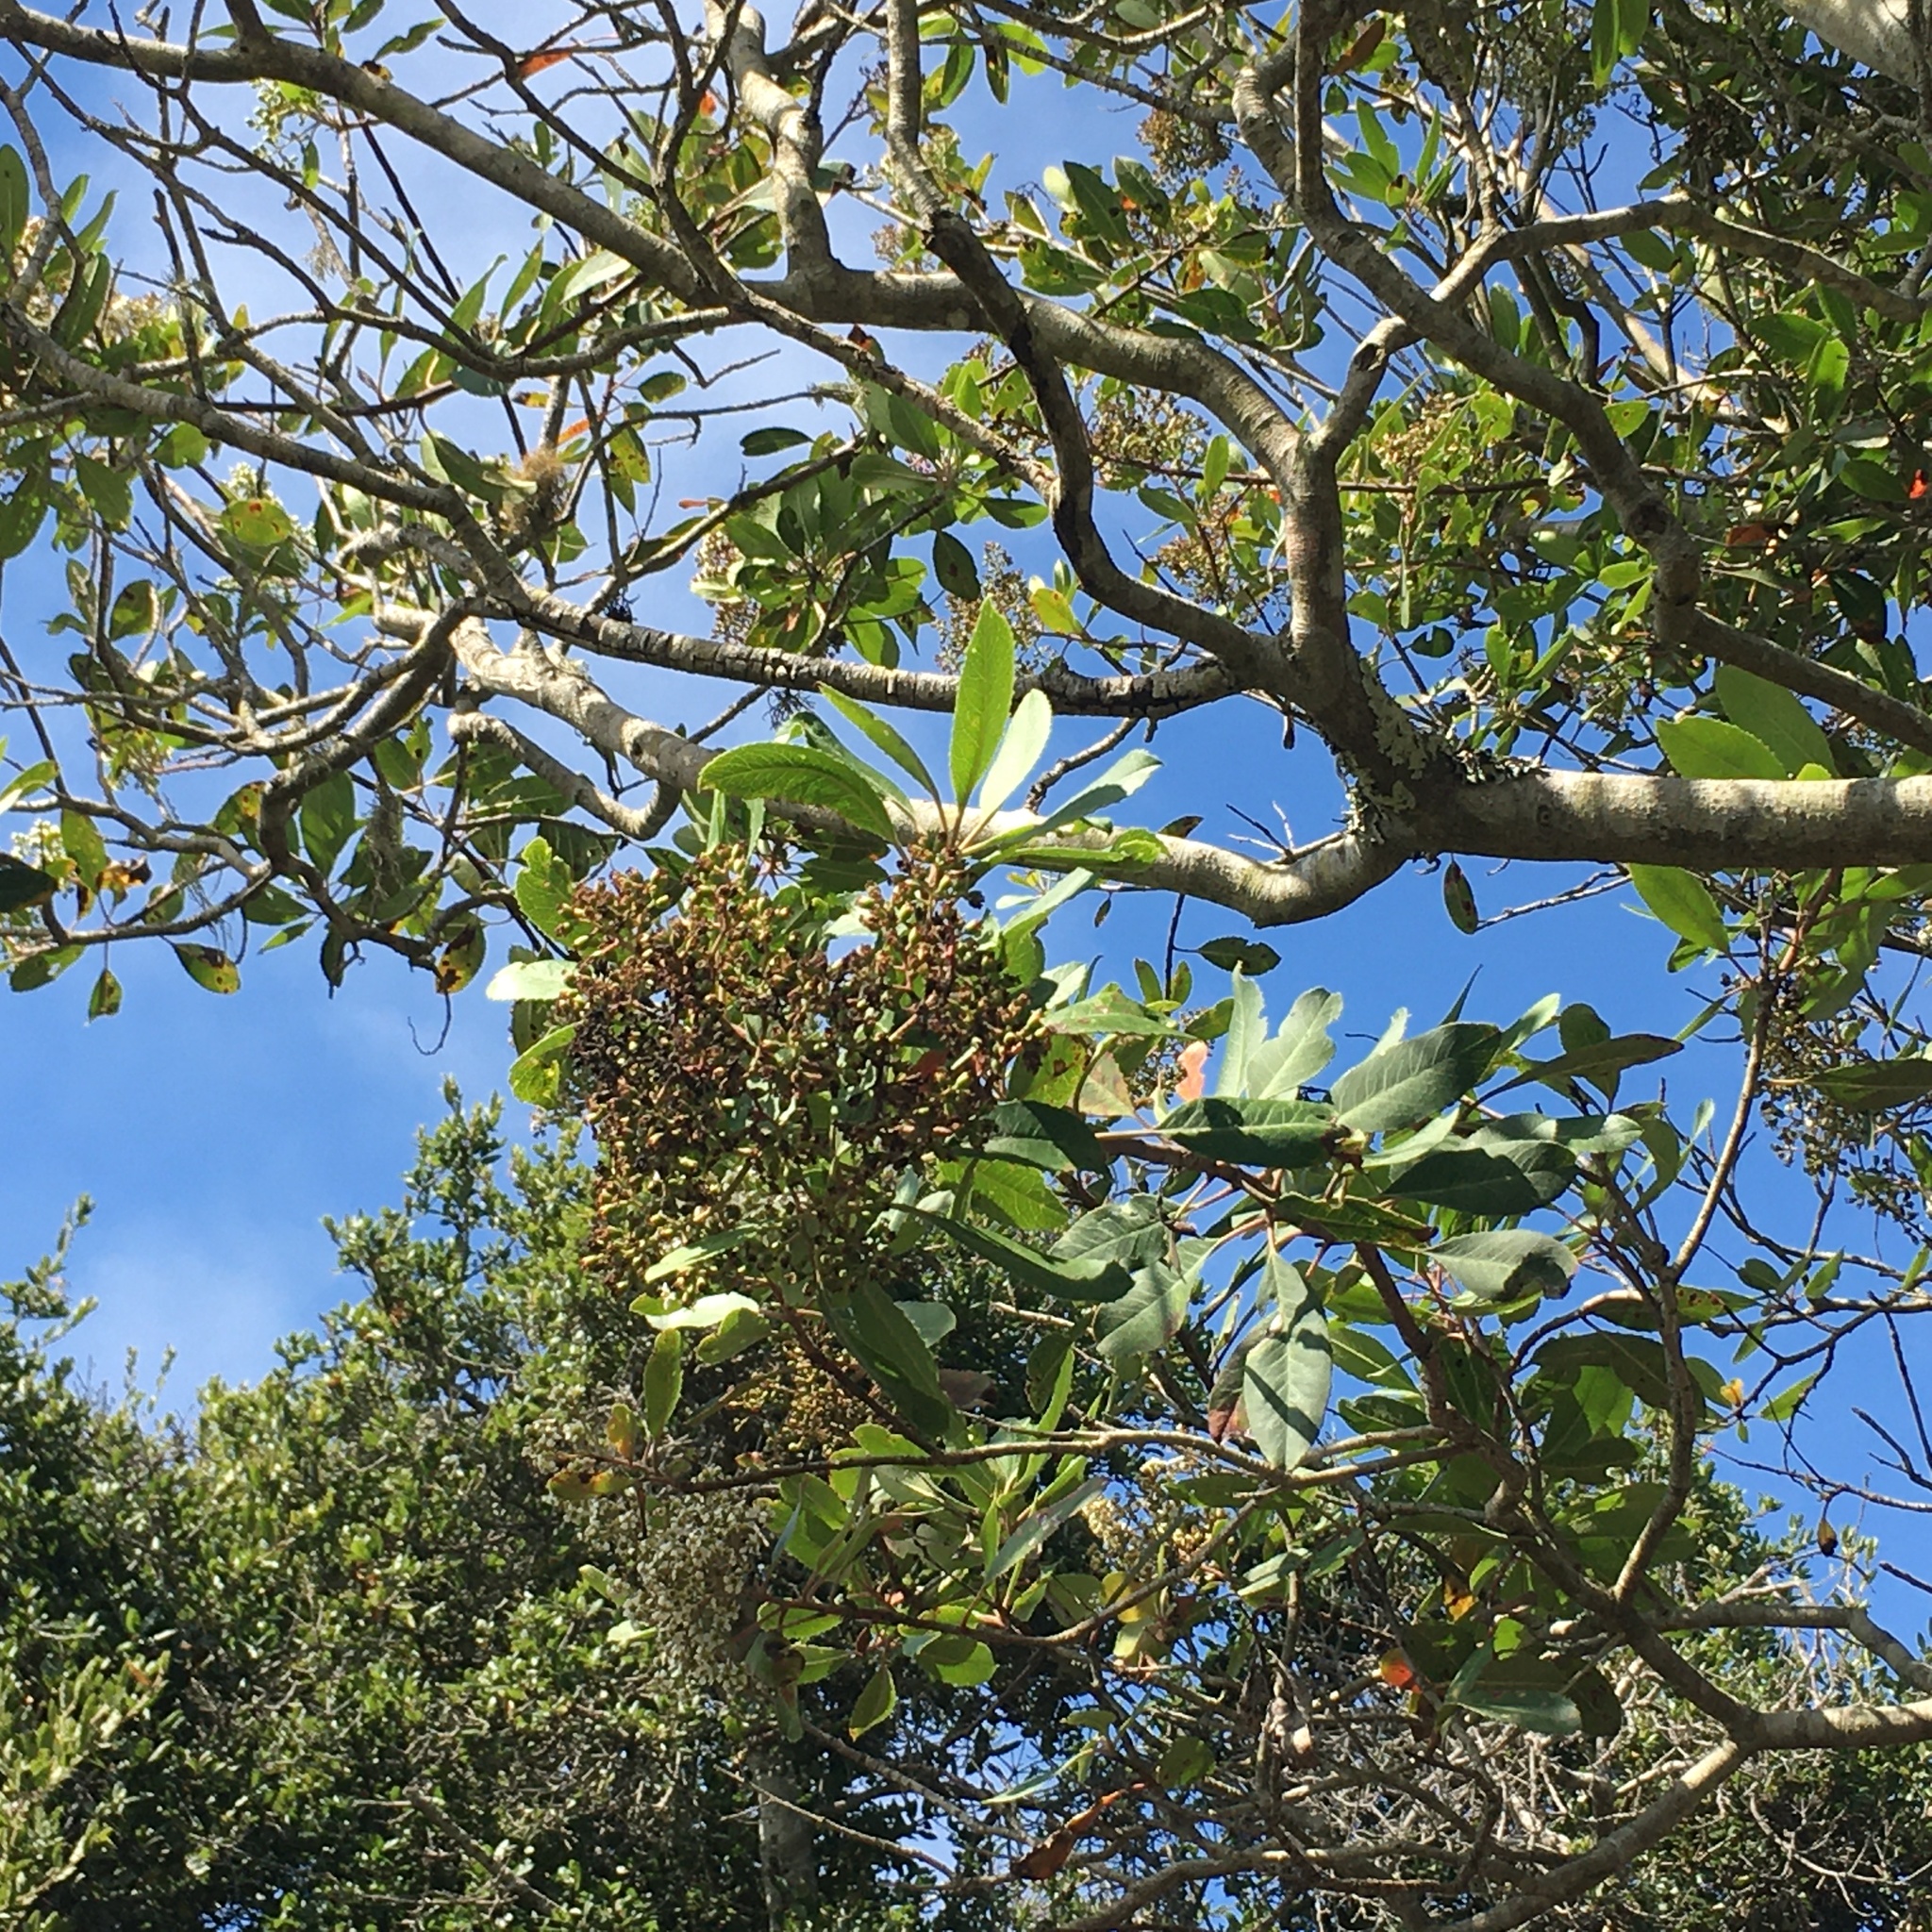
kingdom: Plantae
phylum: Tracheophyta
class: Magnoliopsida
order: Rosales
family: Rosaceae
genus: Heteromeles
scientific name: Heteromeles arbutifolia
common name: California-holly
